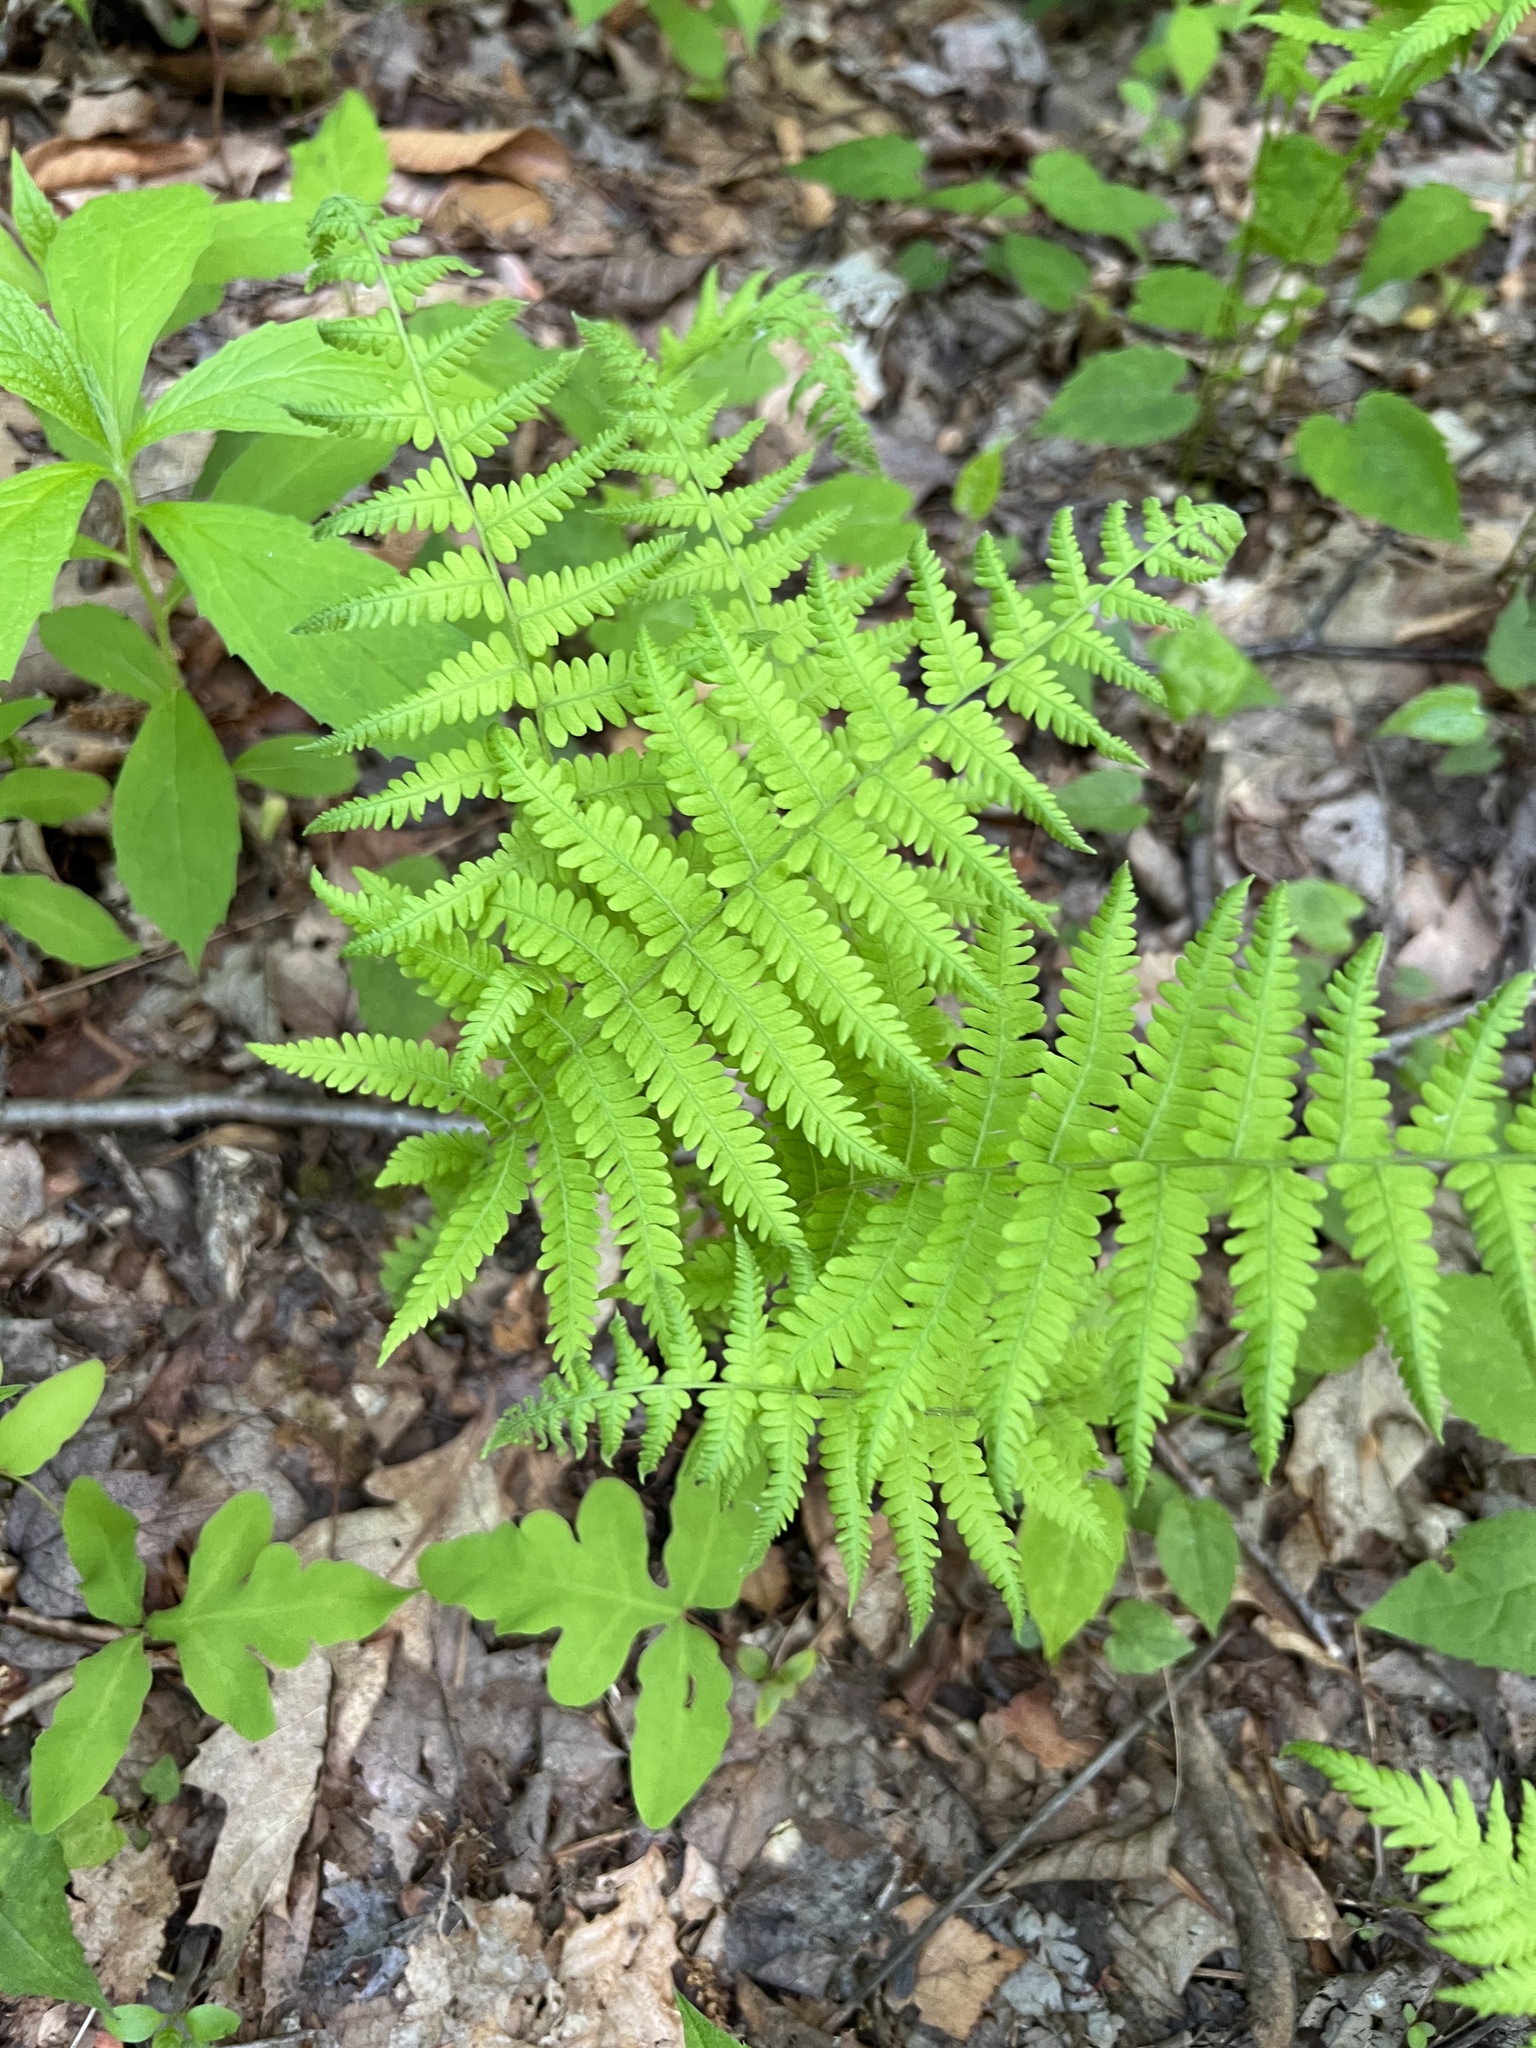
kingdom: Plantae
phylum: Tracheophyta
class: Polypodiopsida
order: Polypodiales
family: Thelypteridaceae
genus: Amauropelta
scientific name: Amauropelta noveboracensis
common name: New york fern
